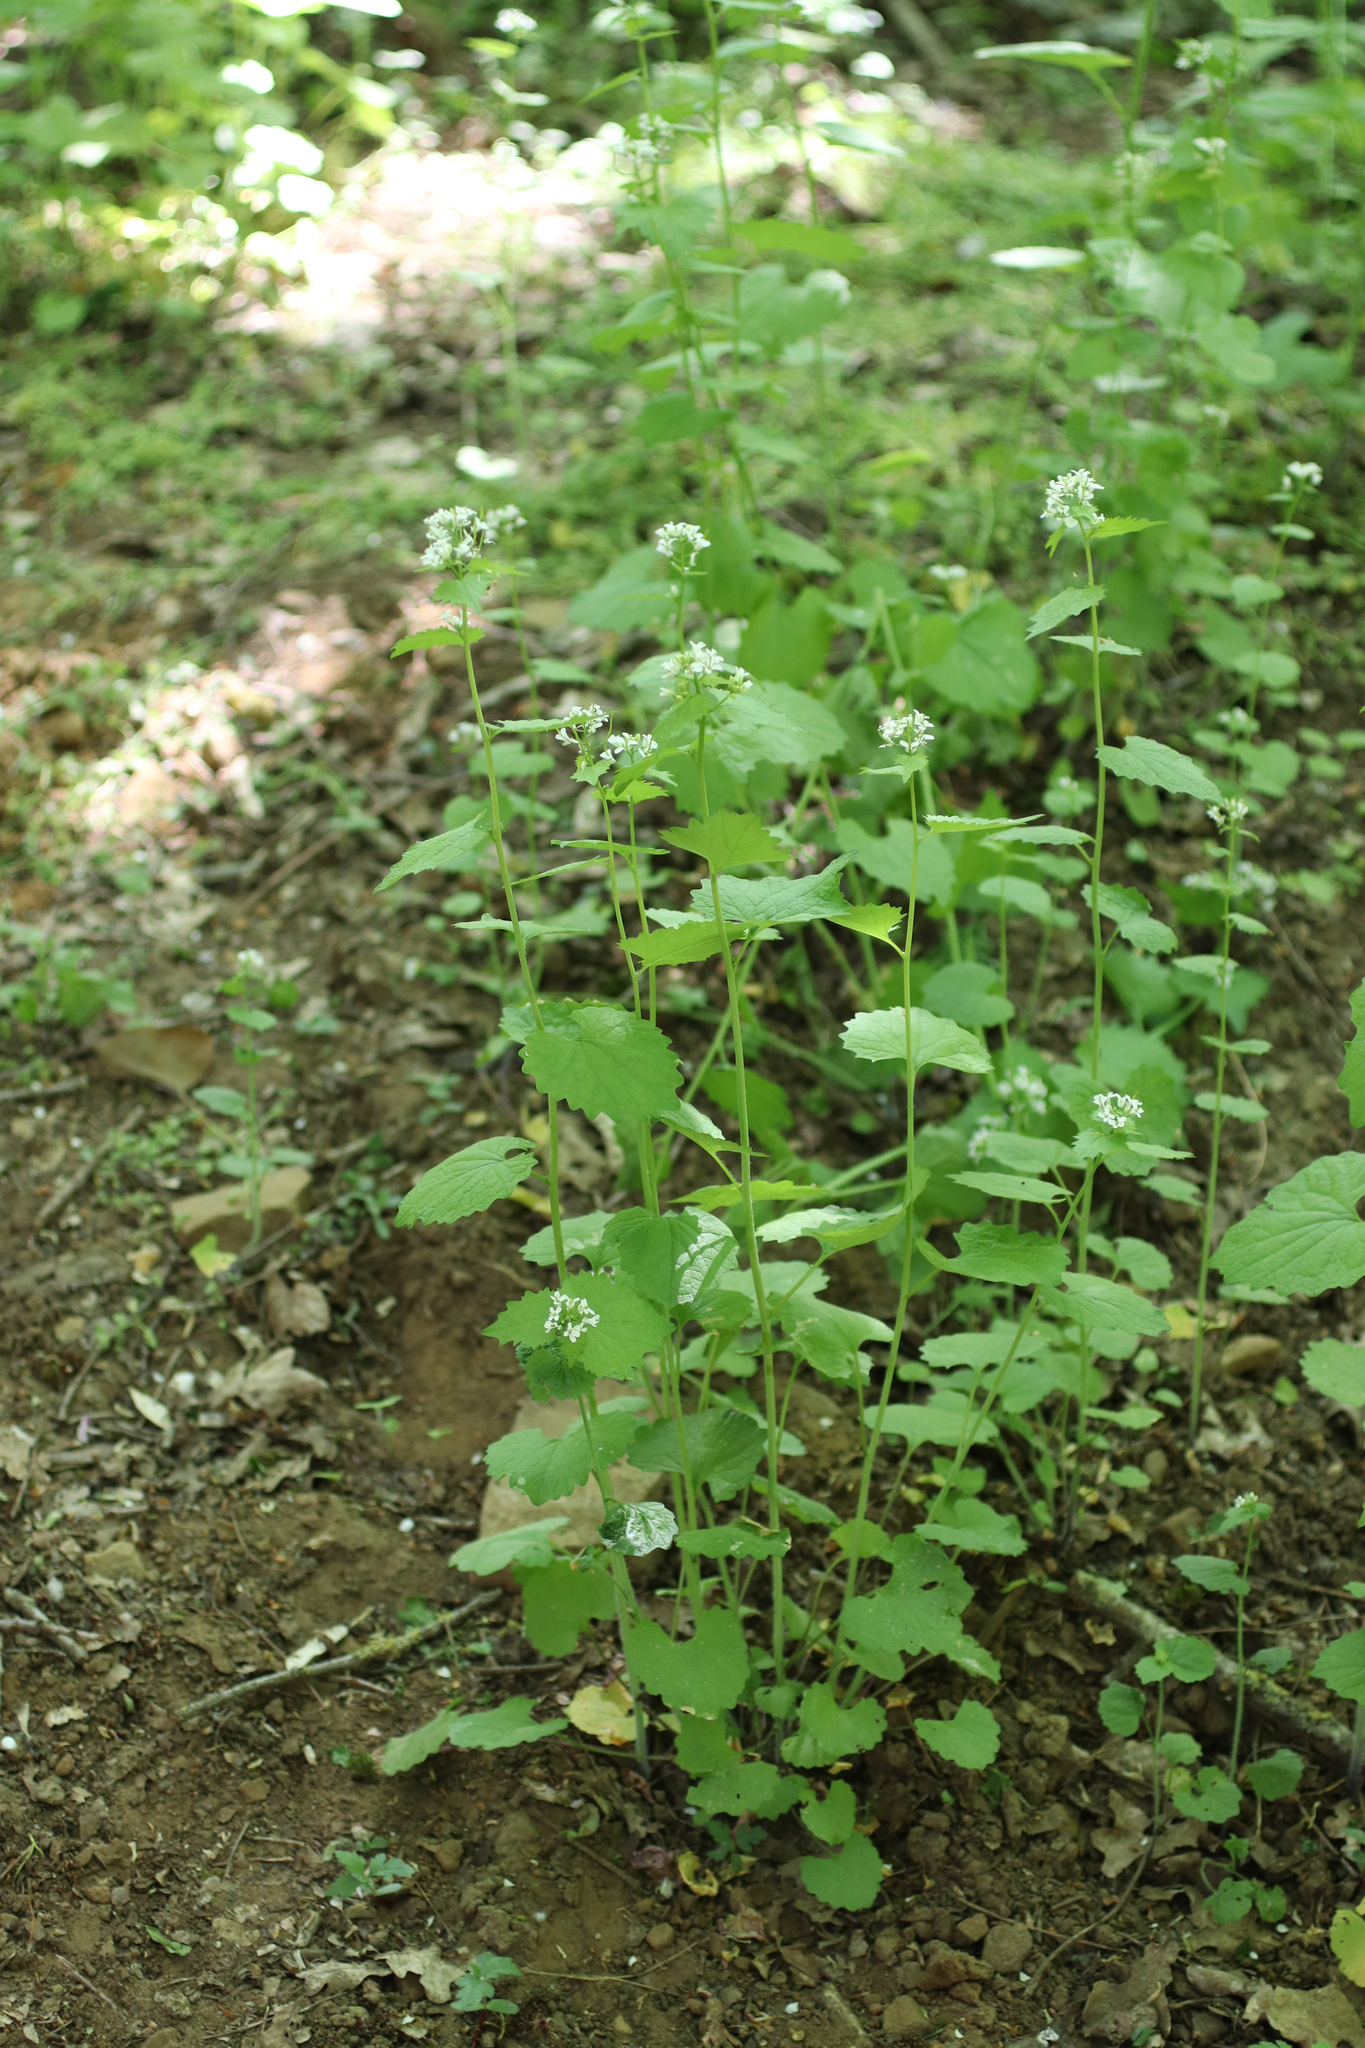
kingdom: Plantae
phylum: Tracheophyta
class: Magnoliopsida
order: Brassicales
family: Brassicaceae
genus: Alliaria
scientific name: Alliaria petiolata
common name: Garlic mustard
